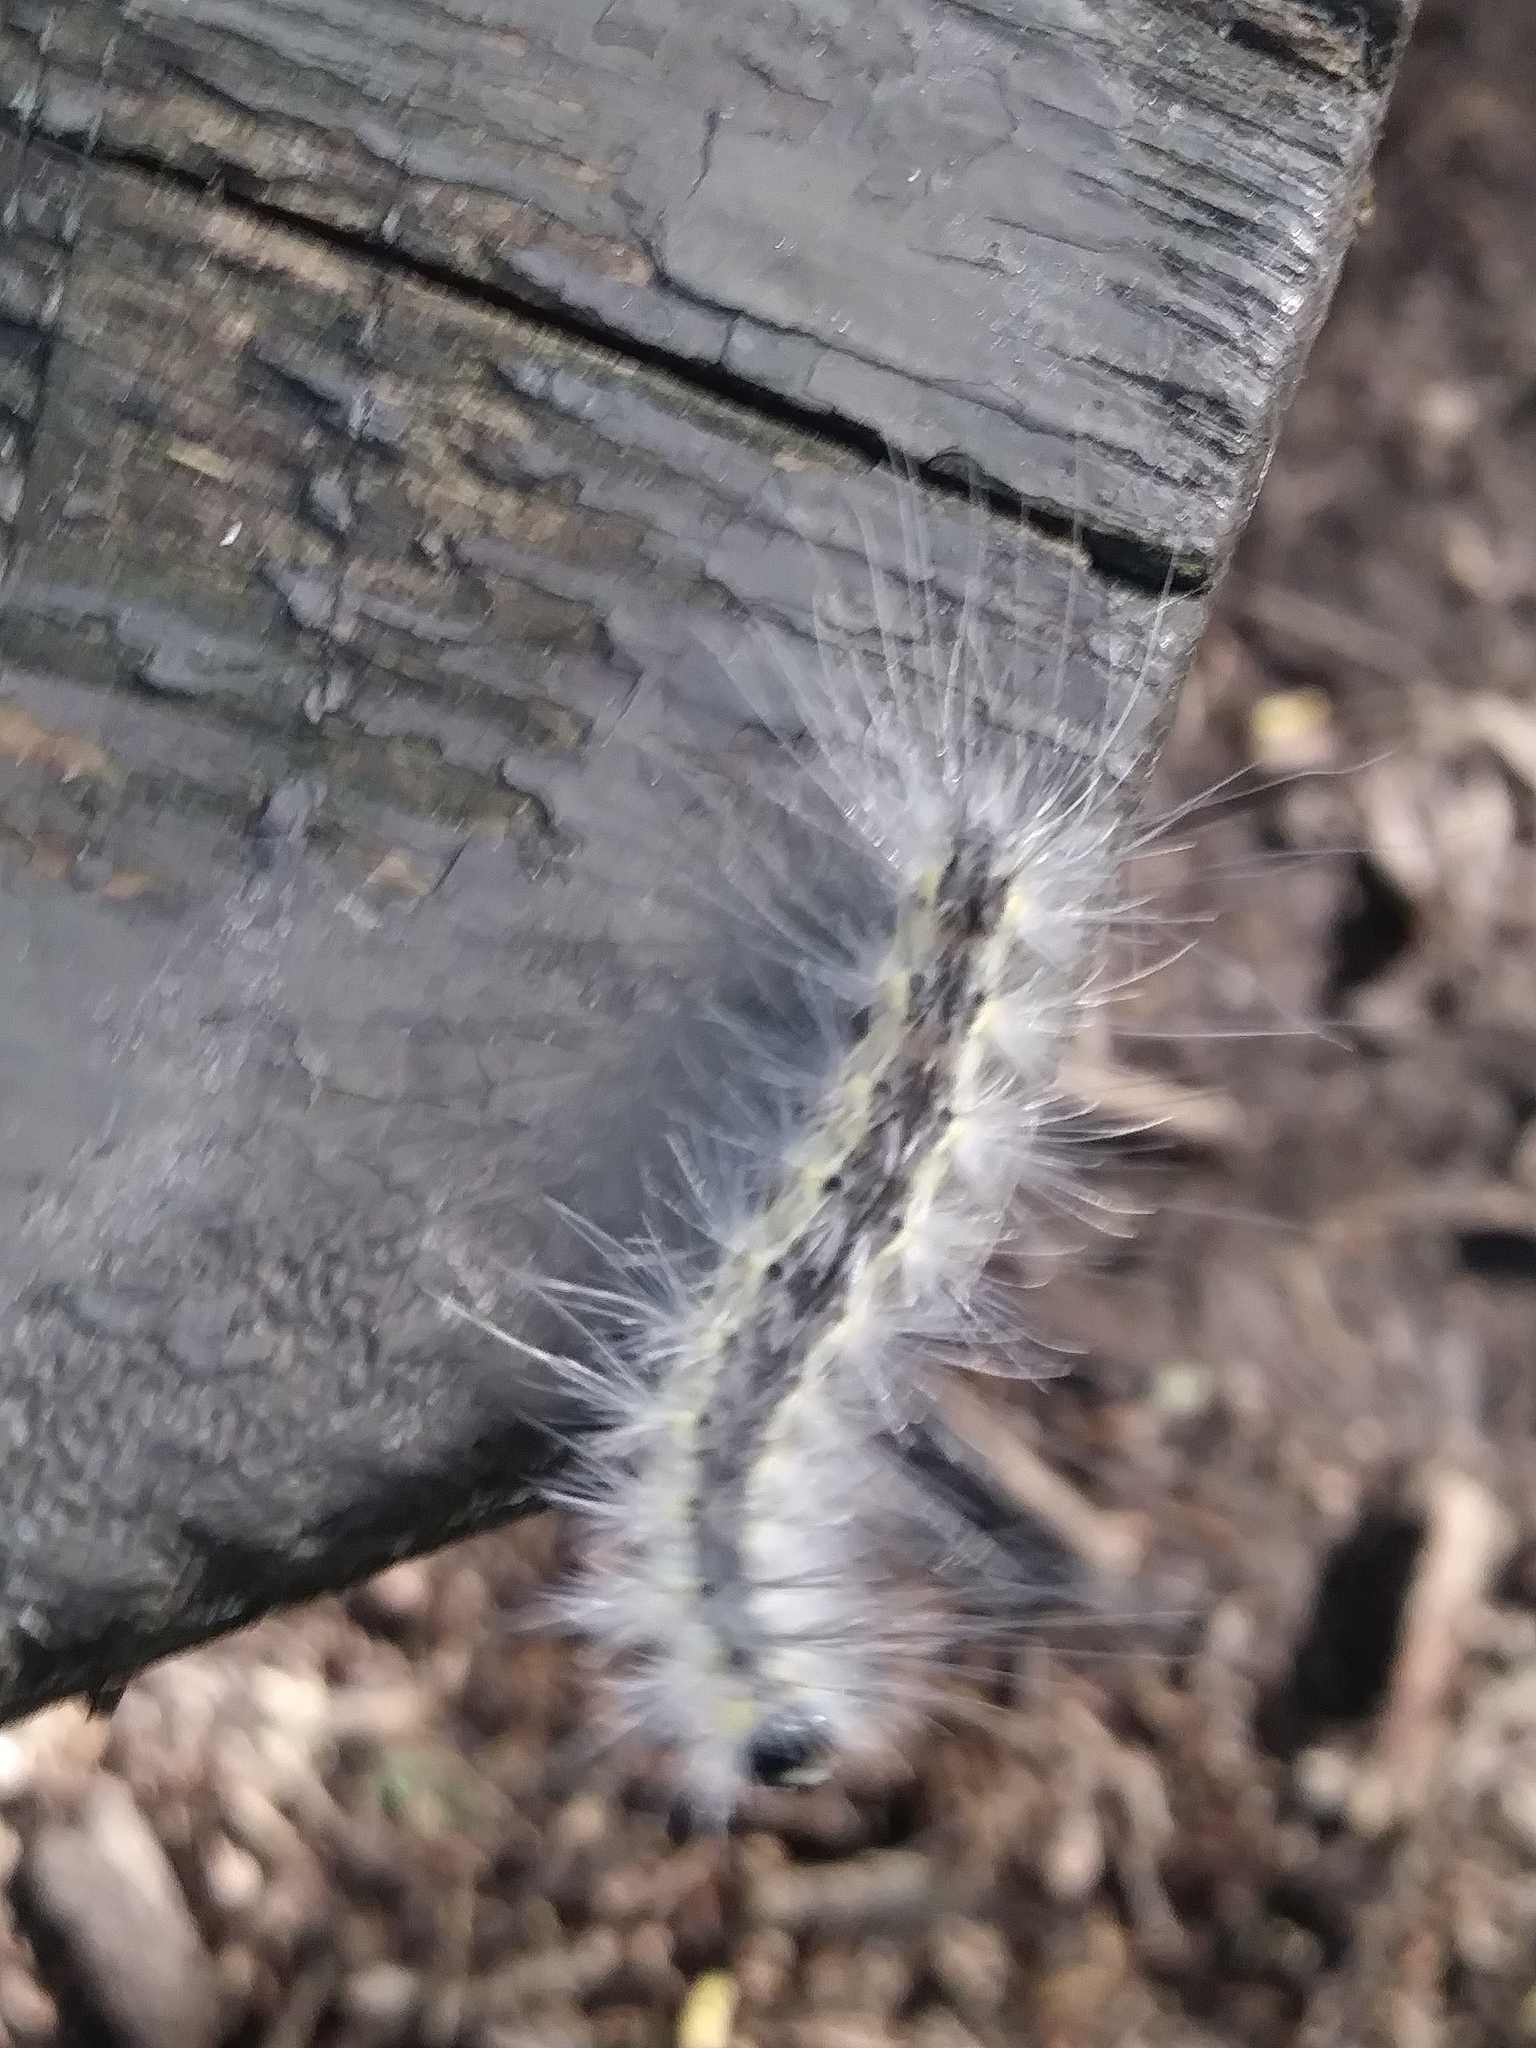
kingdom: Animalia
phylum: Arthropoda
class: Insecta
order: Lepidoptera
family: Erebidae
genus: Hyphantria
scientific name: Hyphantria cunea
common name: American white moth
